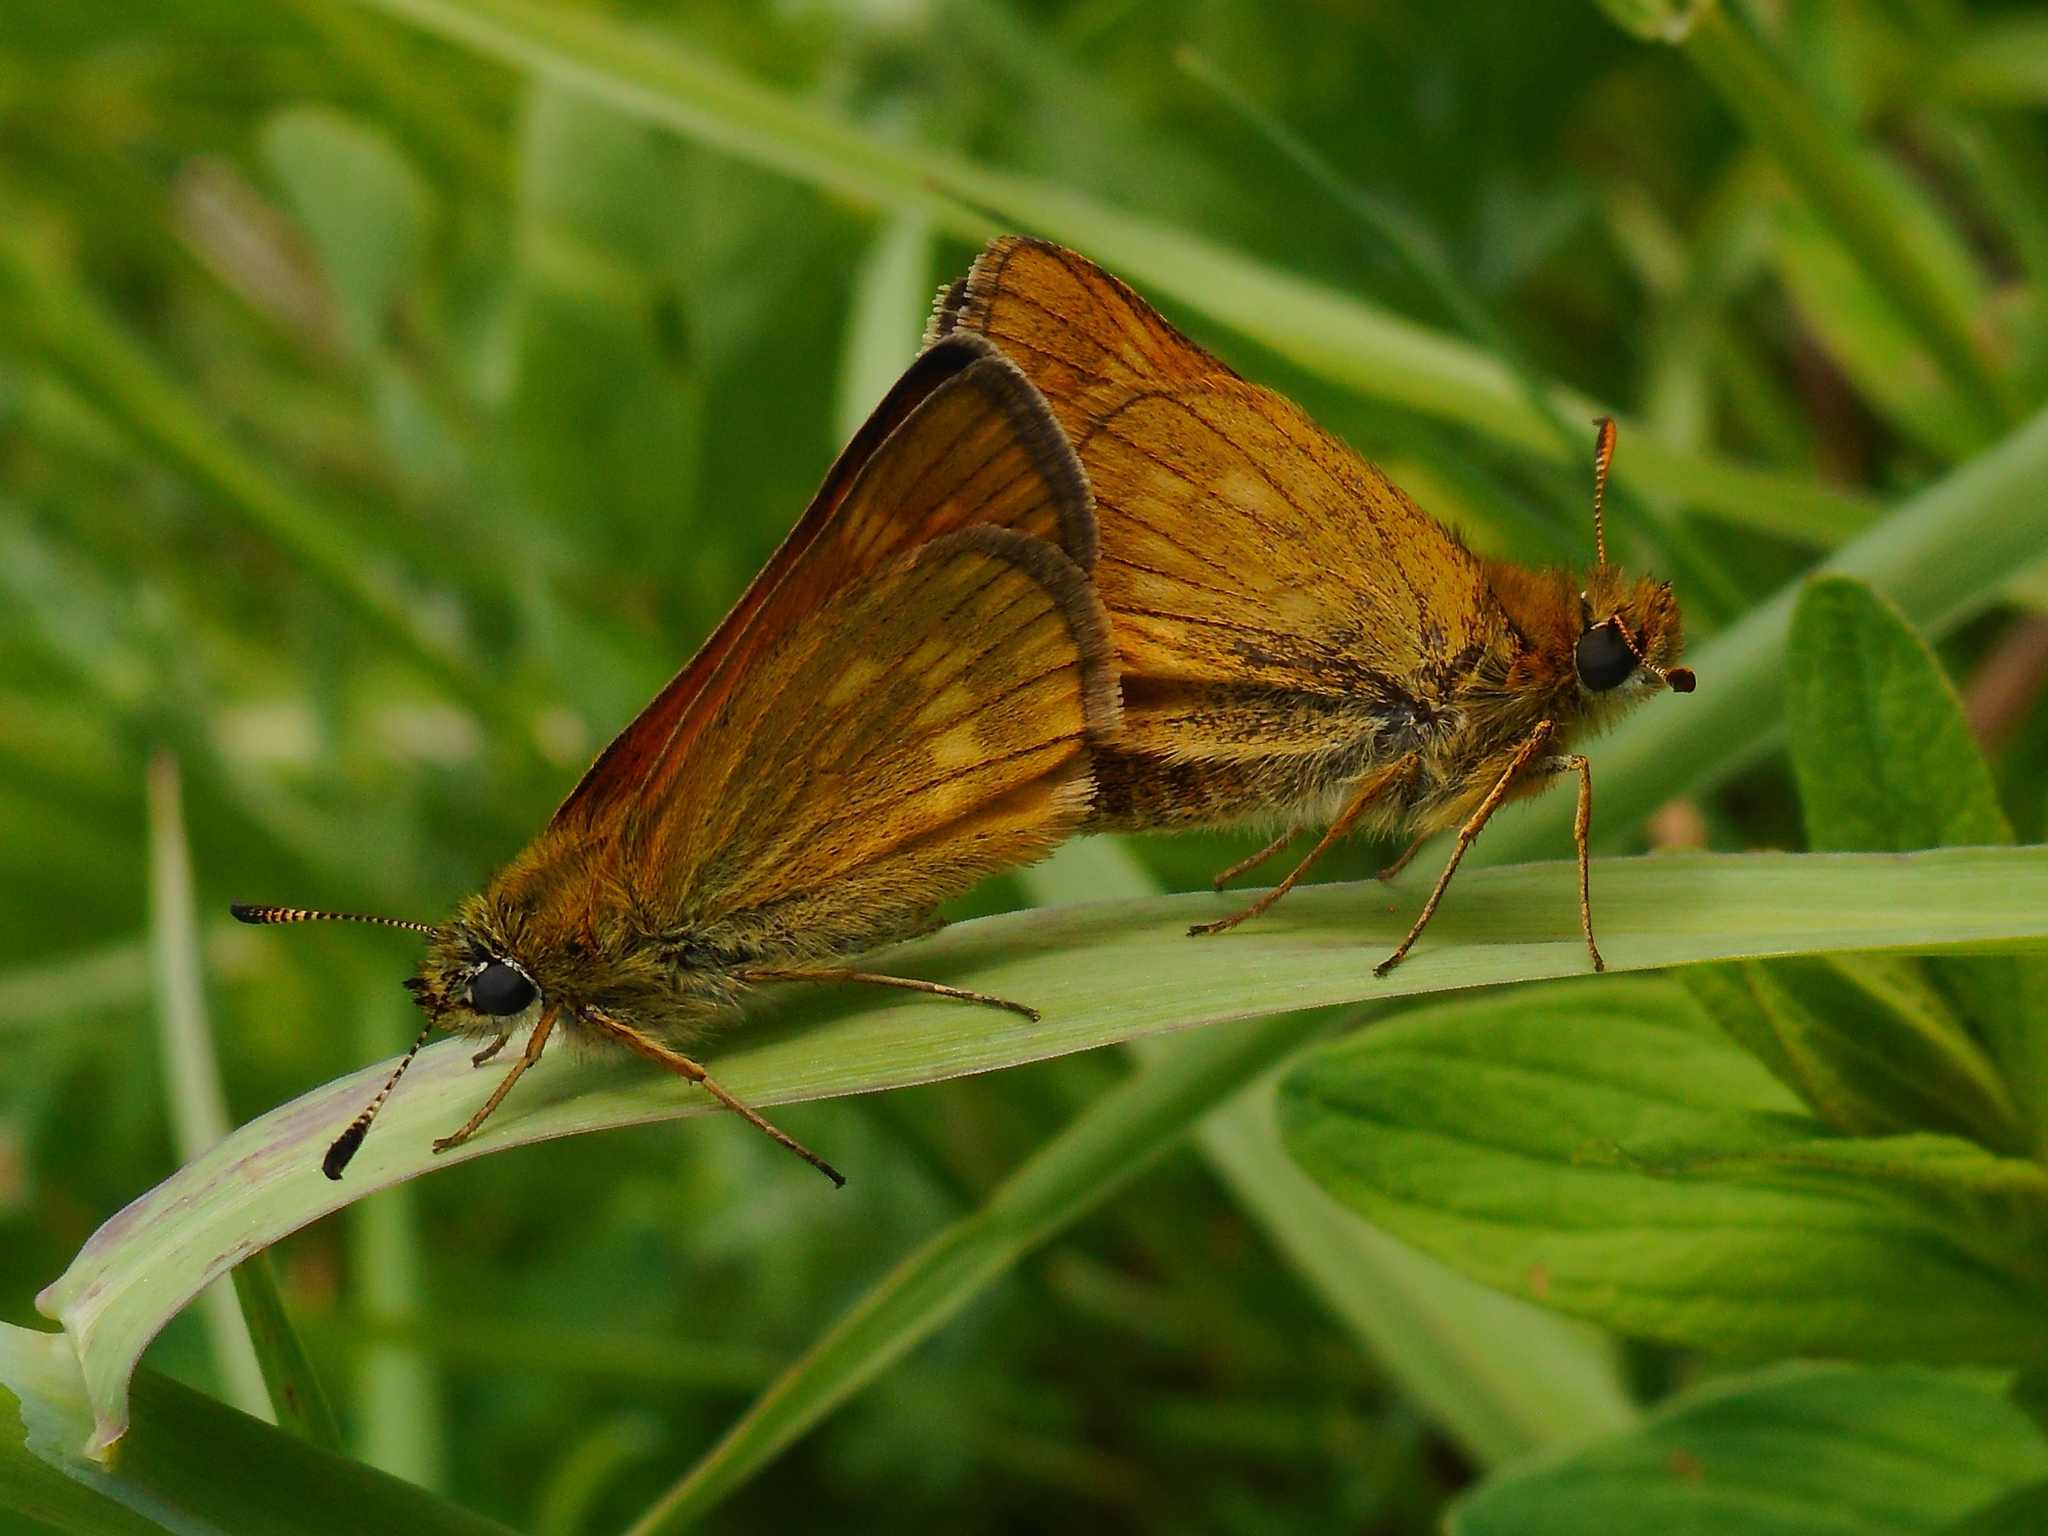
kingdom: Animalia
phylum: Arthropoda
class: Insecta
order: Lepidoptera
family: Hesperiidae
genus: Ochlodes
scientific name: Ochlodes venata
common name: Large skipper
